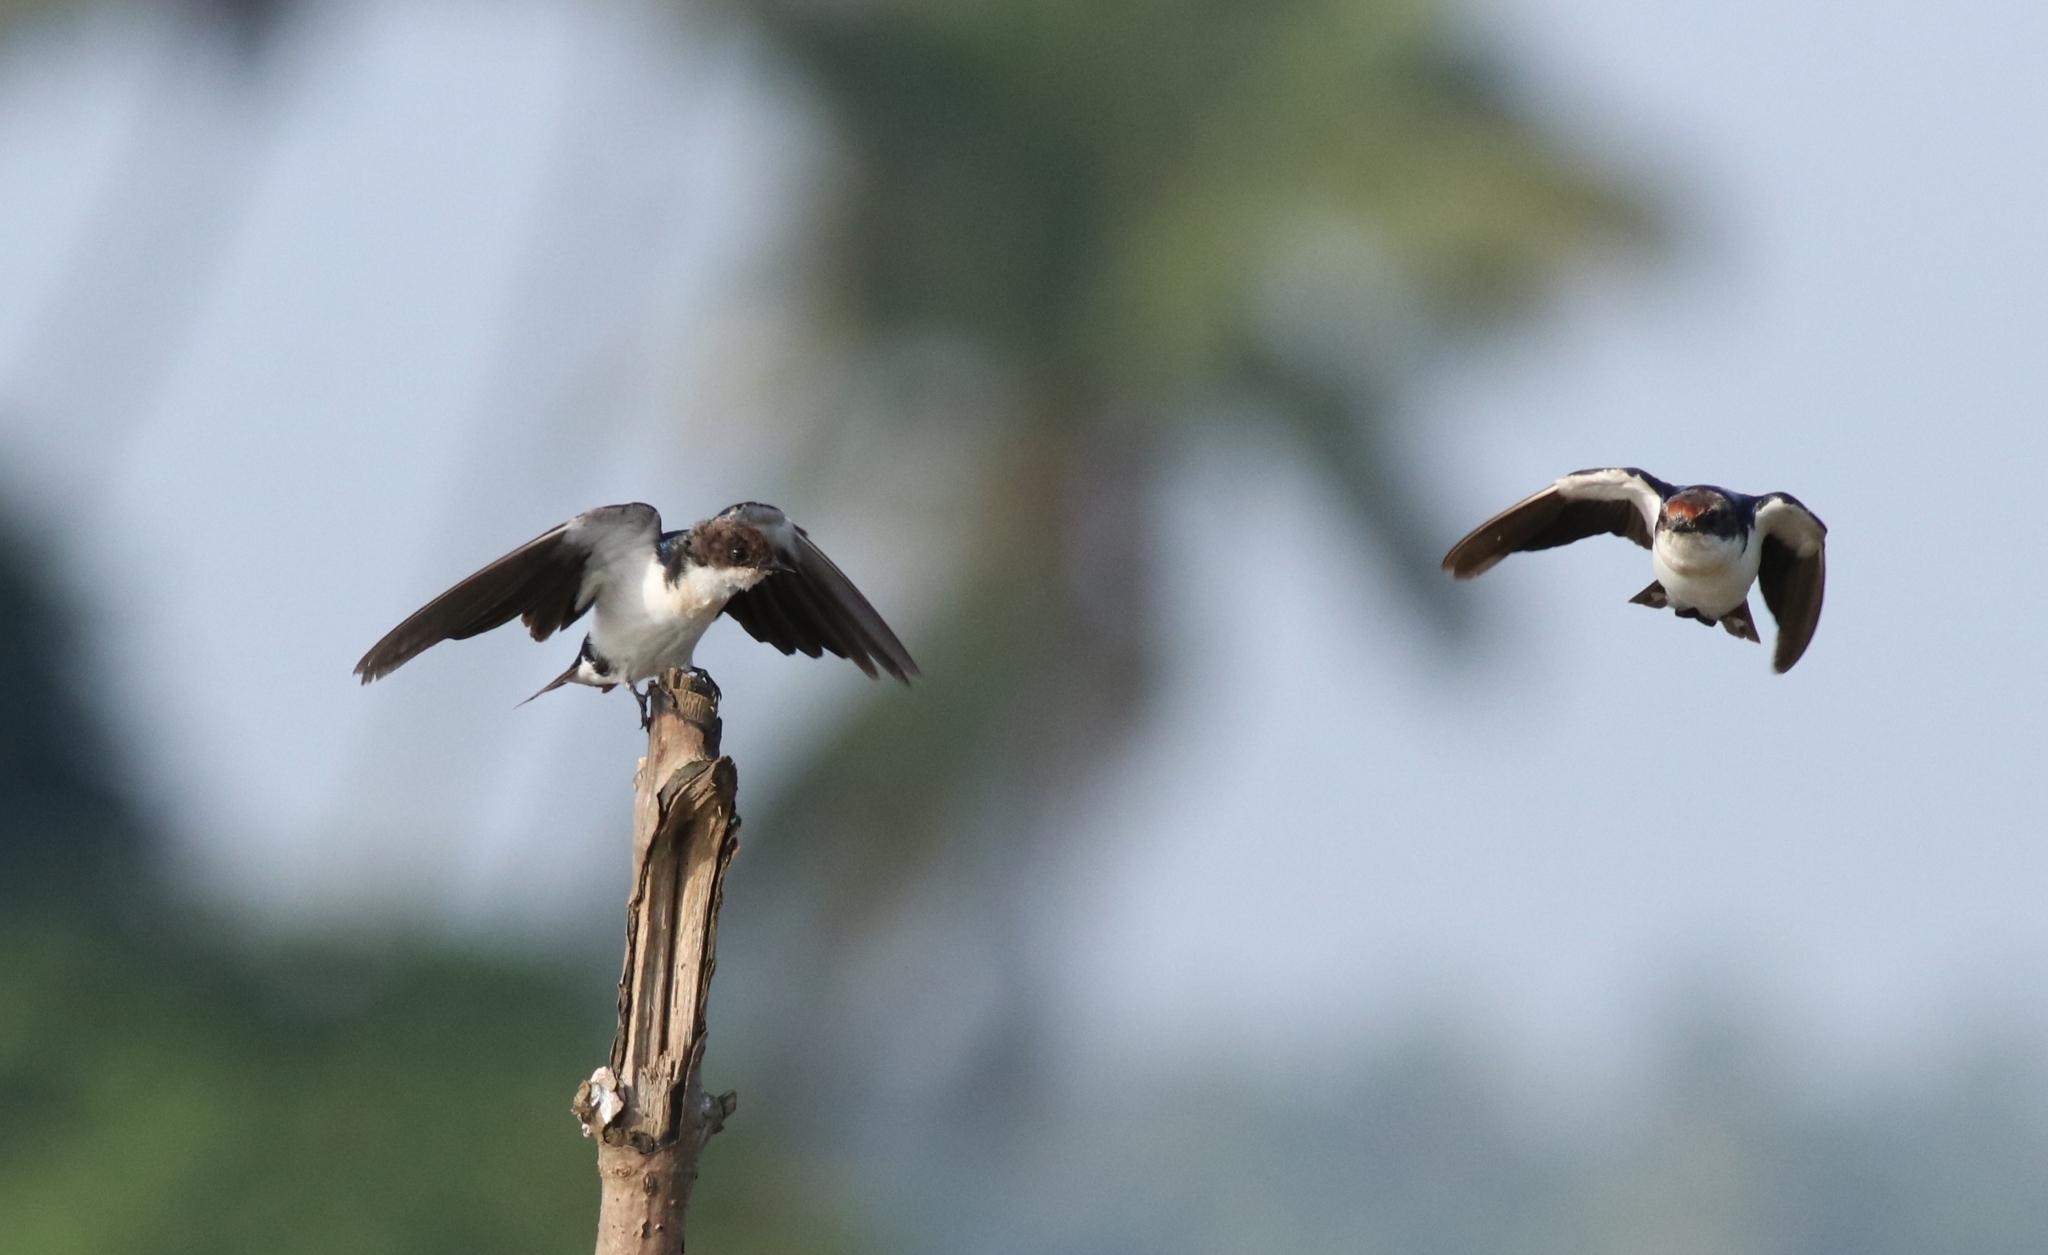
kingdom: Animalia
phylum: Chordata
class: Aves
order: Passeriformes
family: Hirundinidae
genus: Hirundo
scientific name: Hirundo smithii
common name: Wire-tailed swallow
